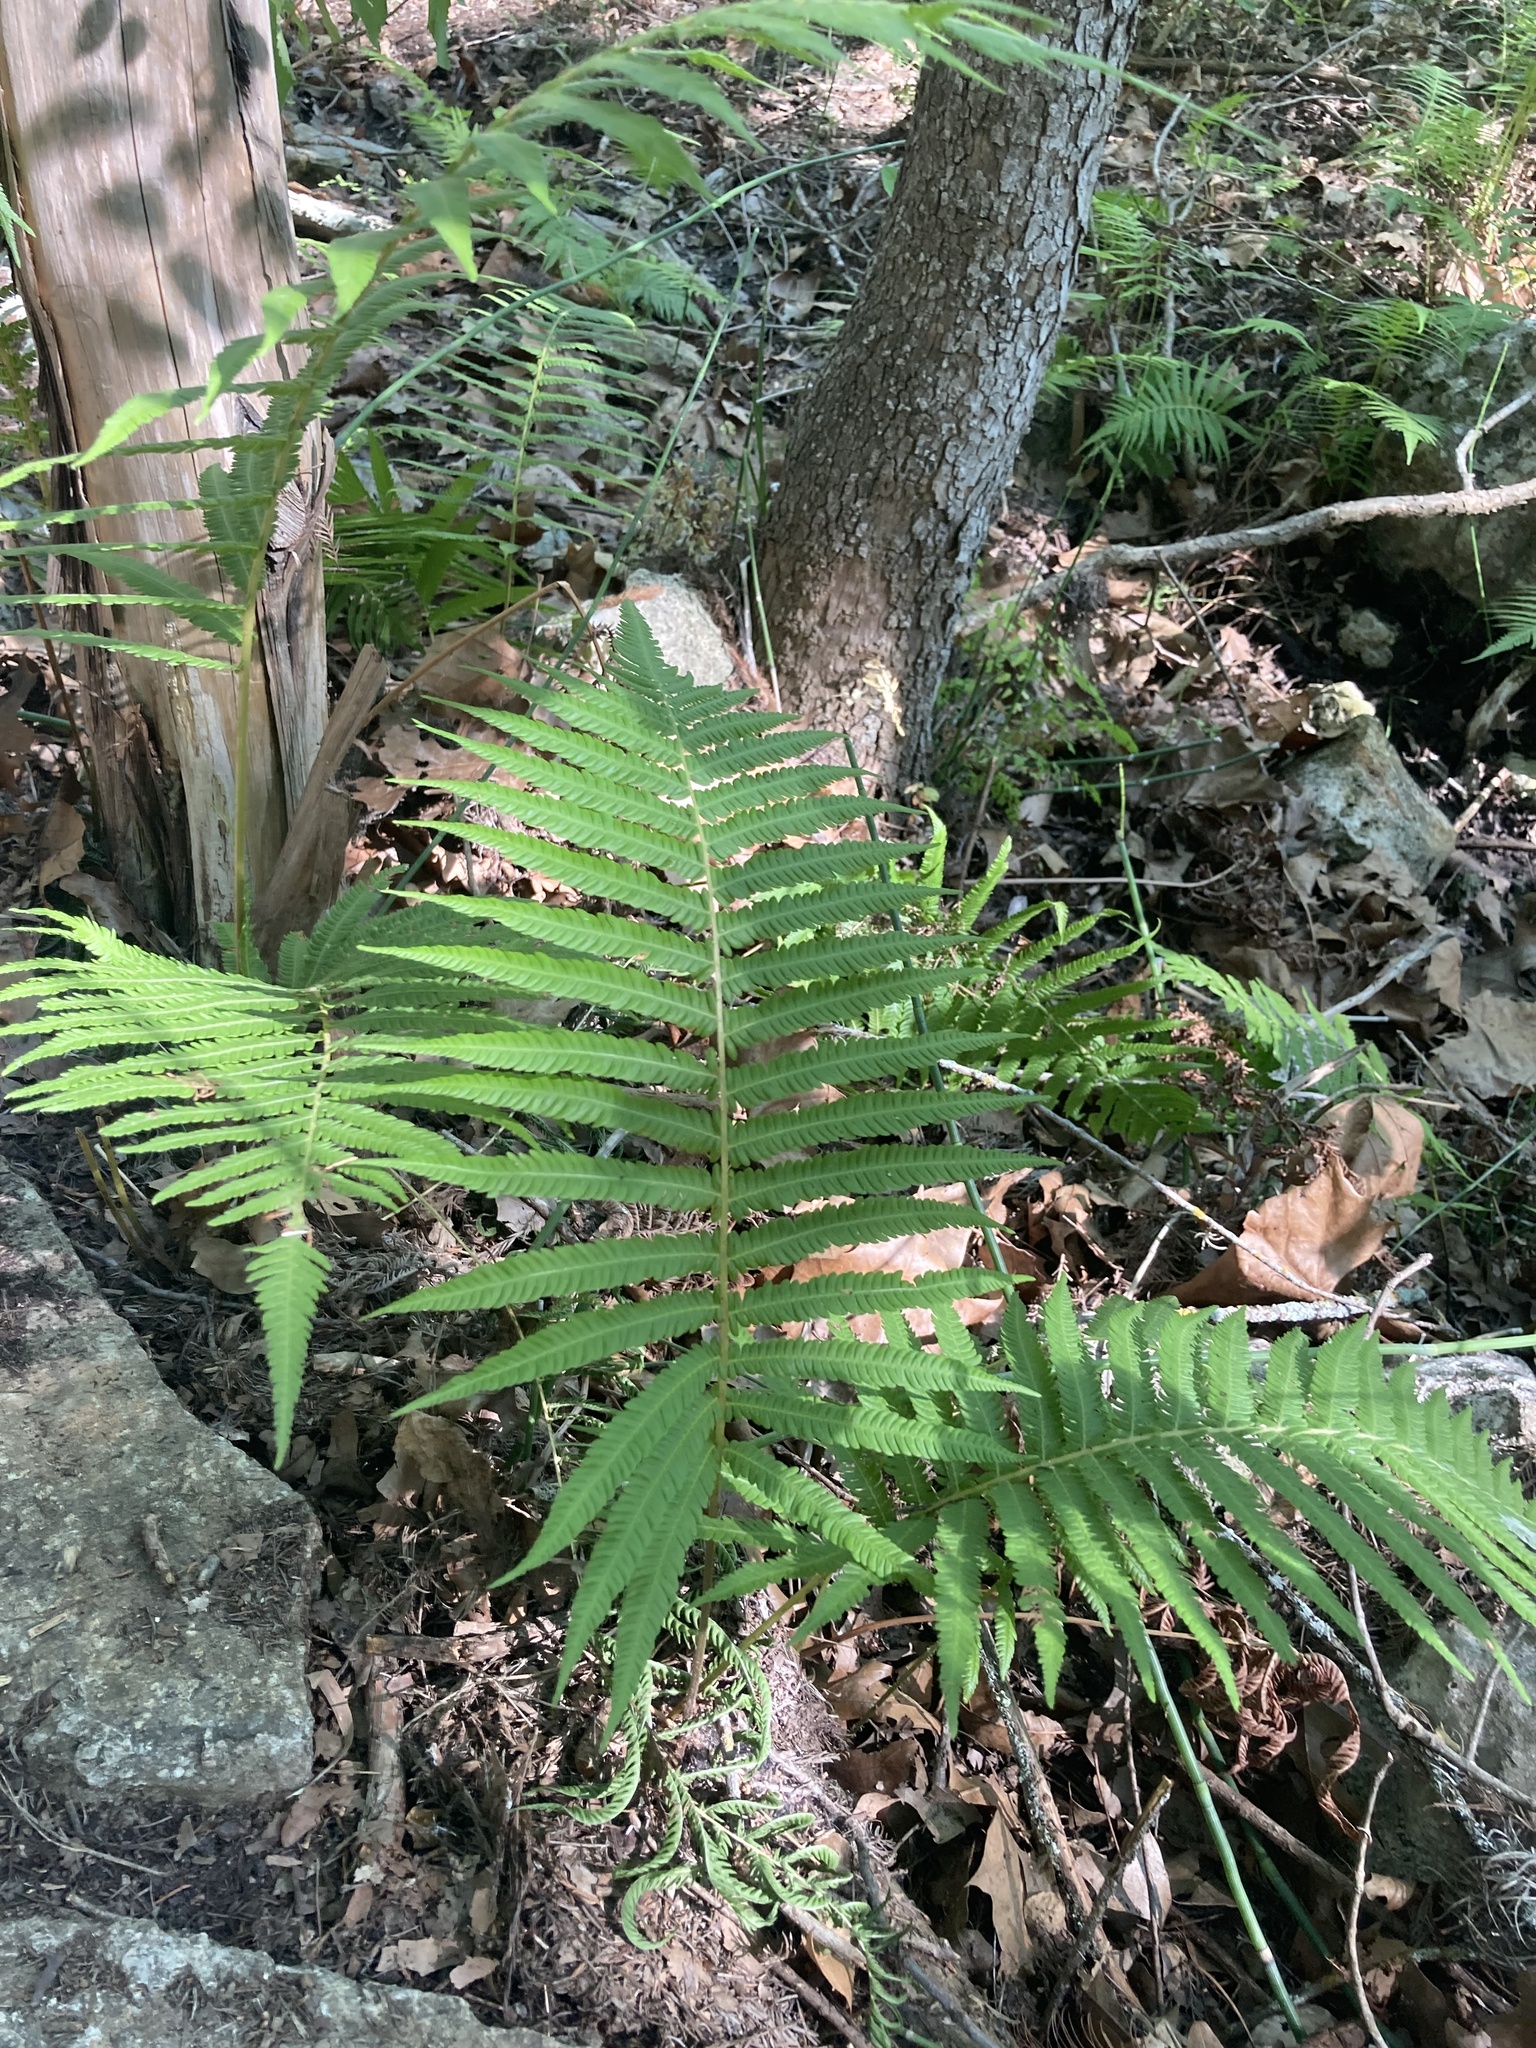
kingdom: Plantae
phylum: Tracheophyta
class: Polypodiopsida
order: Polypodiales
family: Thelypteridaceae
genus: Pelazoneuron
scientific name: Pelazoneuron ovatum
